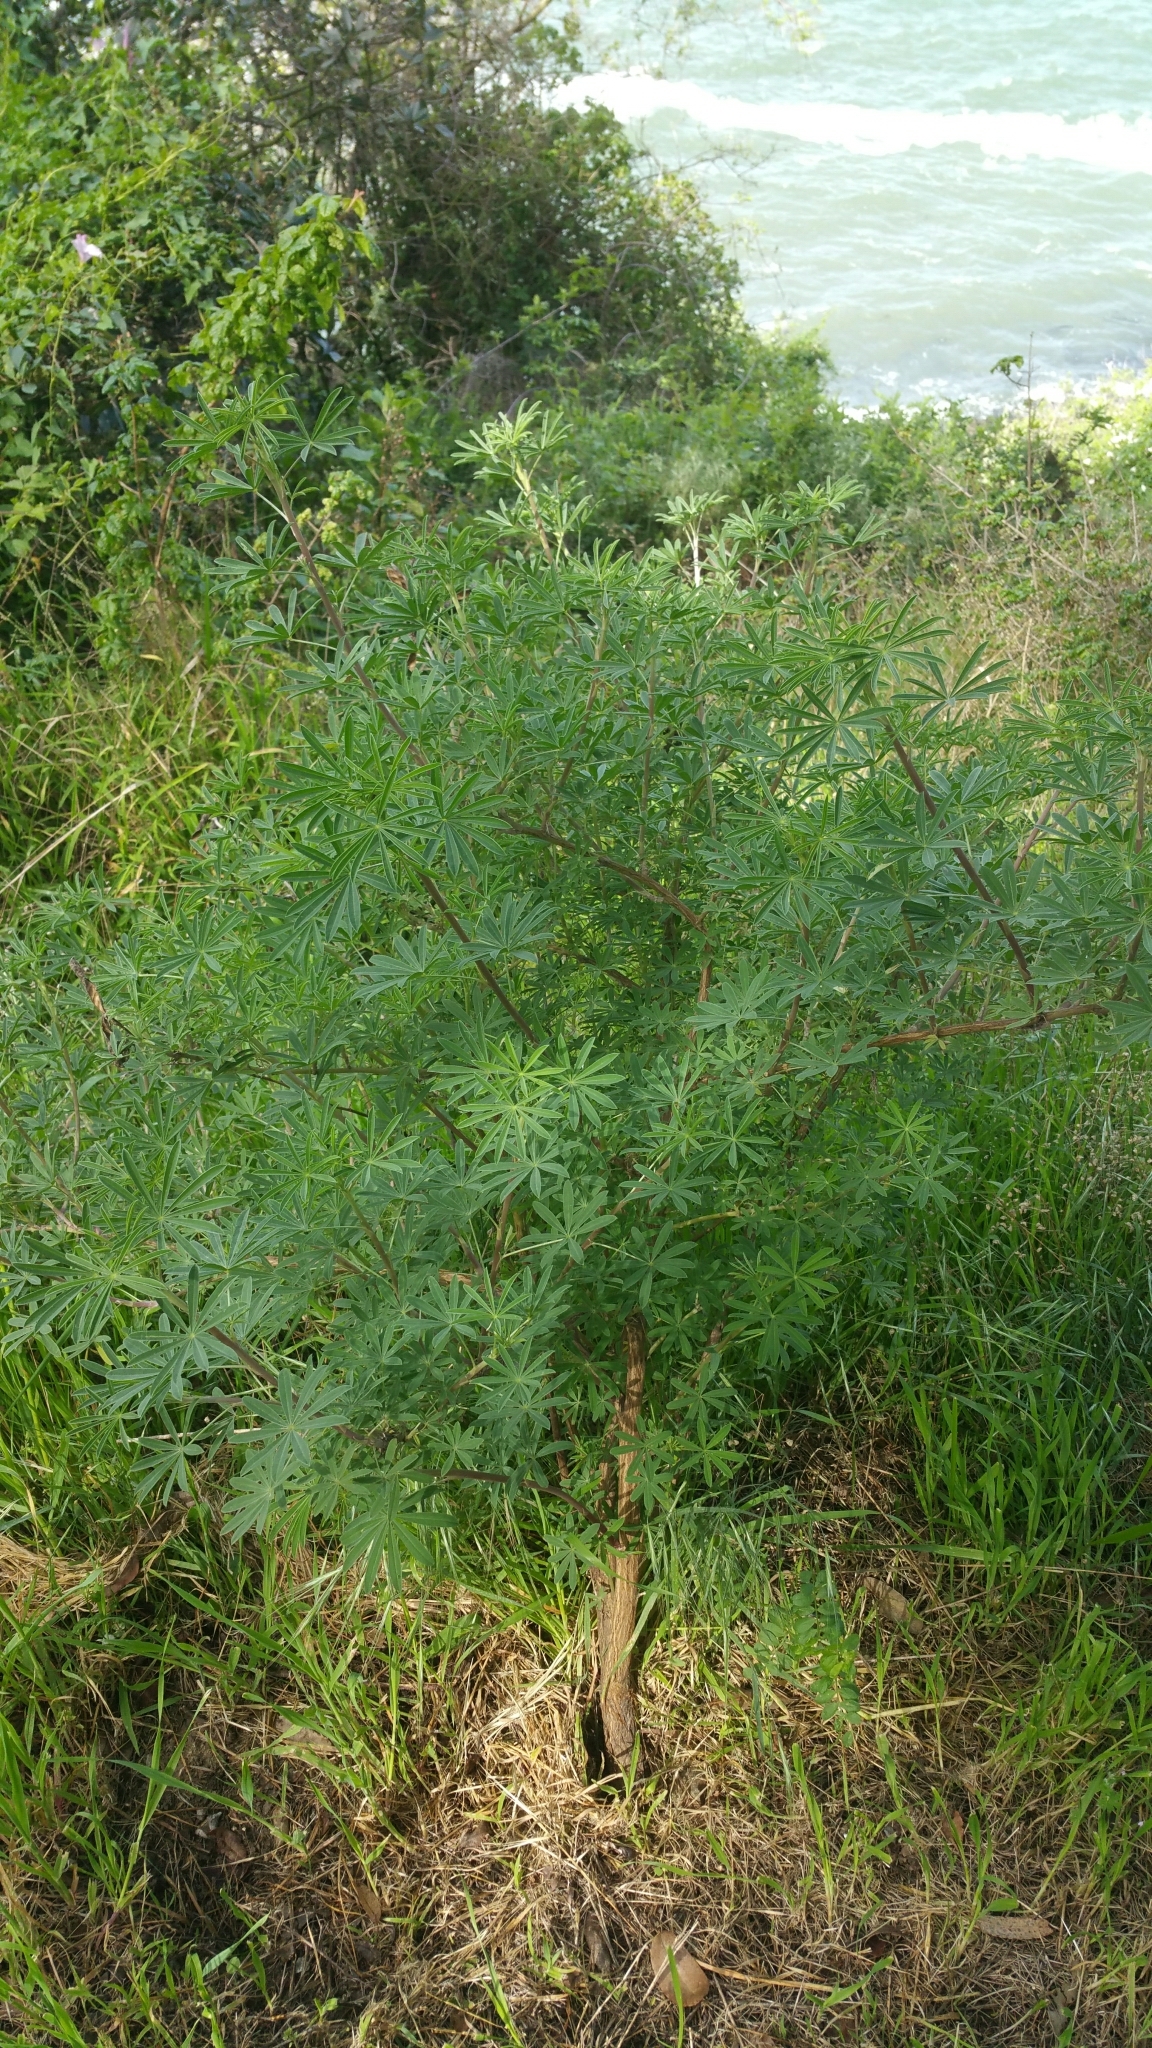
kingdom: Plantae
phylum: Tracheophyta
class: Magnoliopsida
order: Fabales
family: Fabaceae
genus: Lupinus
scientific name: Lupinus arboreus
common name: Yellow bush lupine
